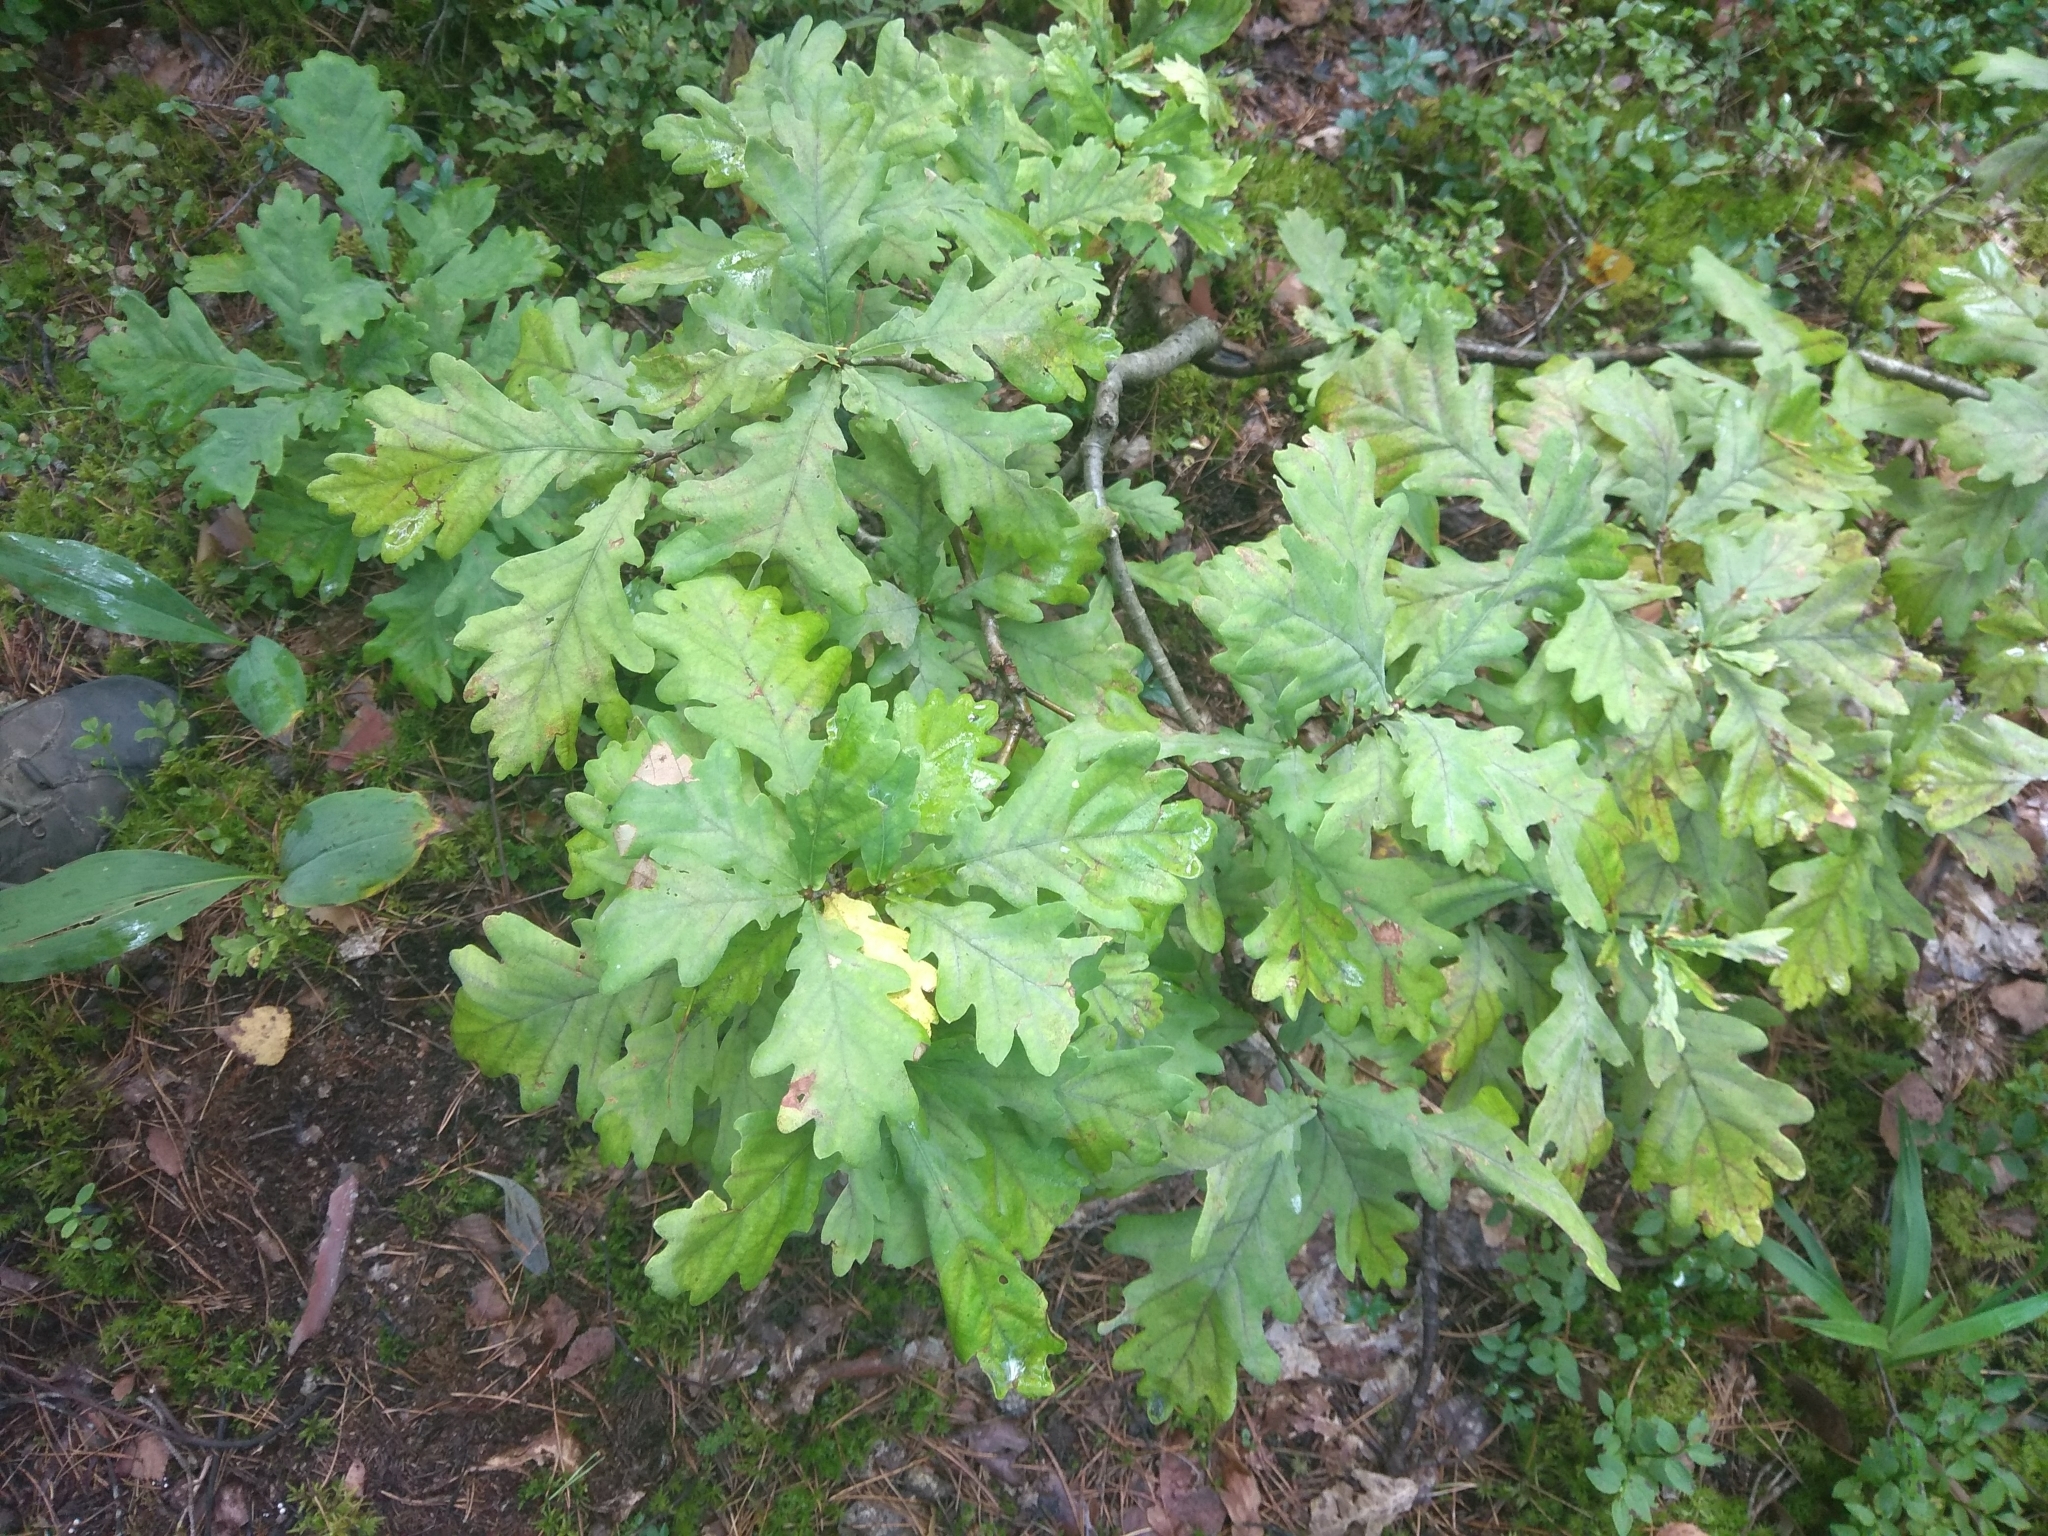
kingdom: Plantae
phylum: Tracheophyta
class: Magnoliopsida
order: Fagales
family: Fagaceae
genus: Quercus
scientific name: Quercus robur
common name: Pedunculate oak
